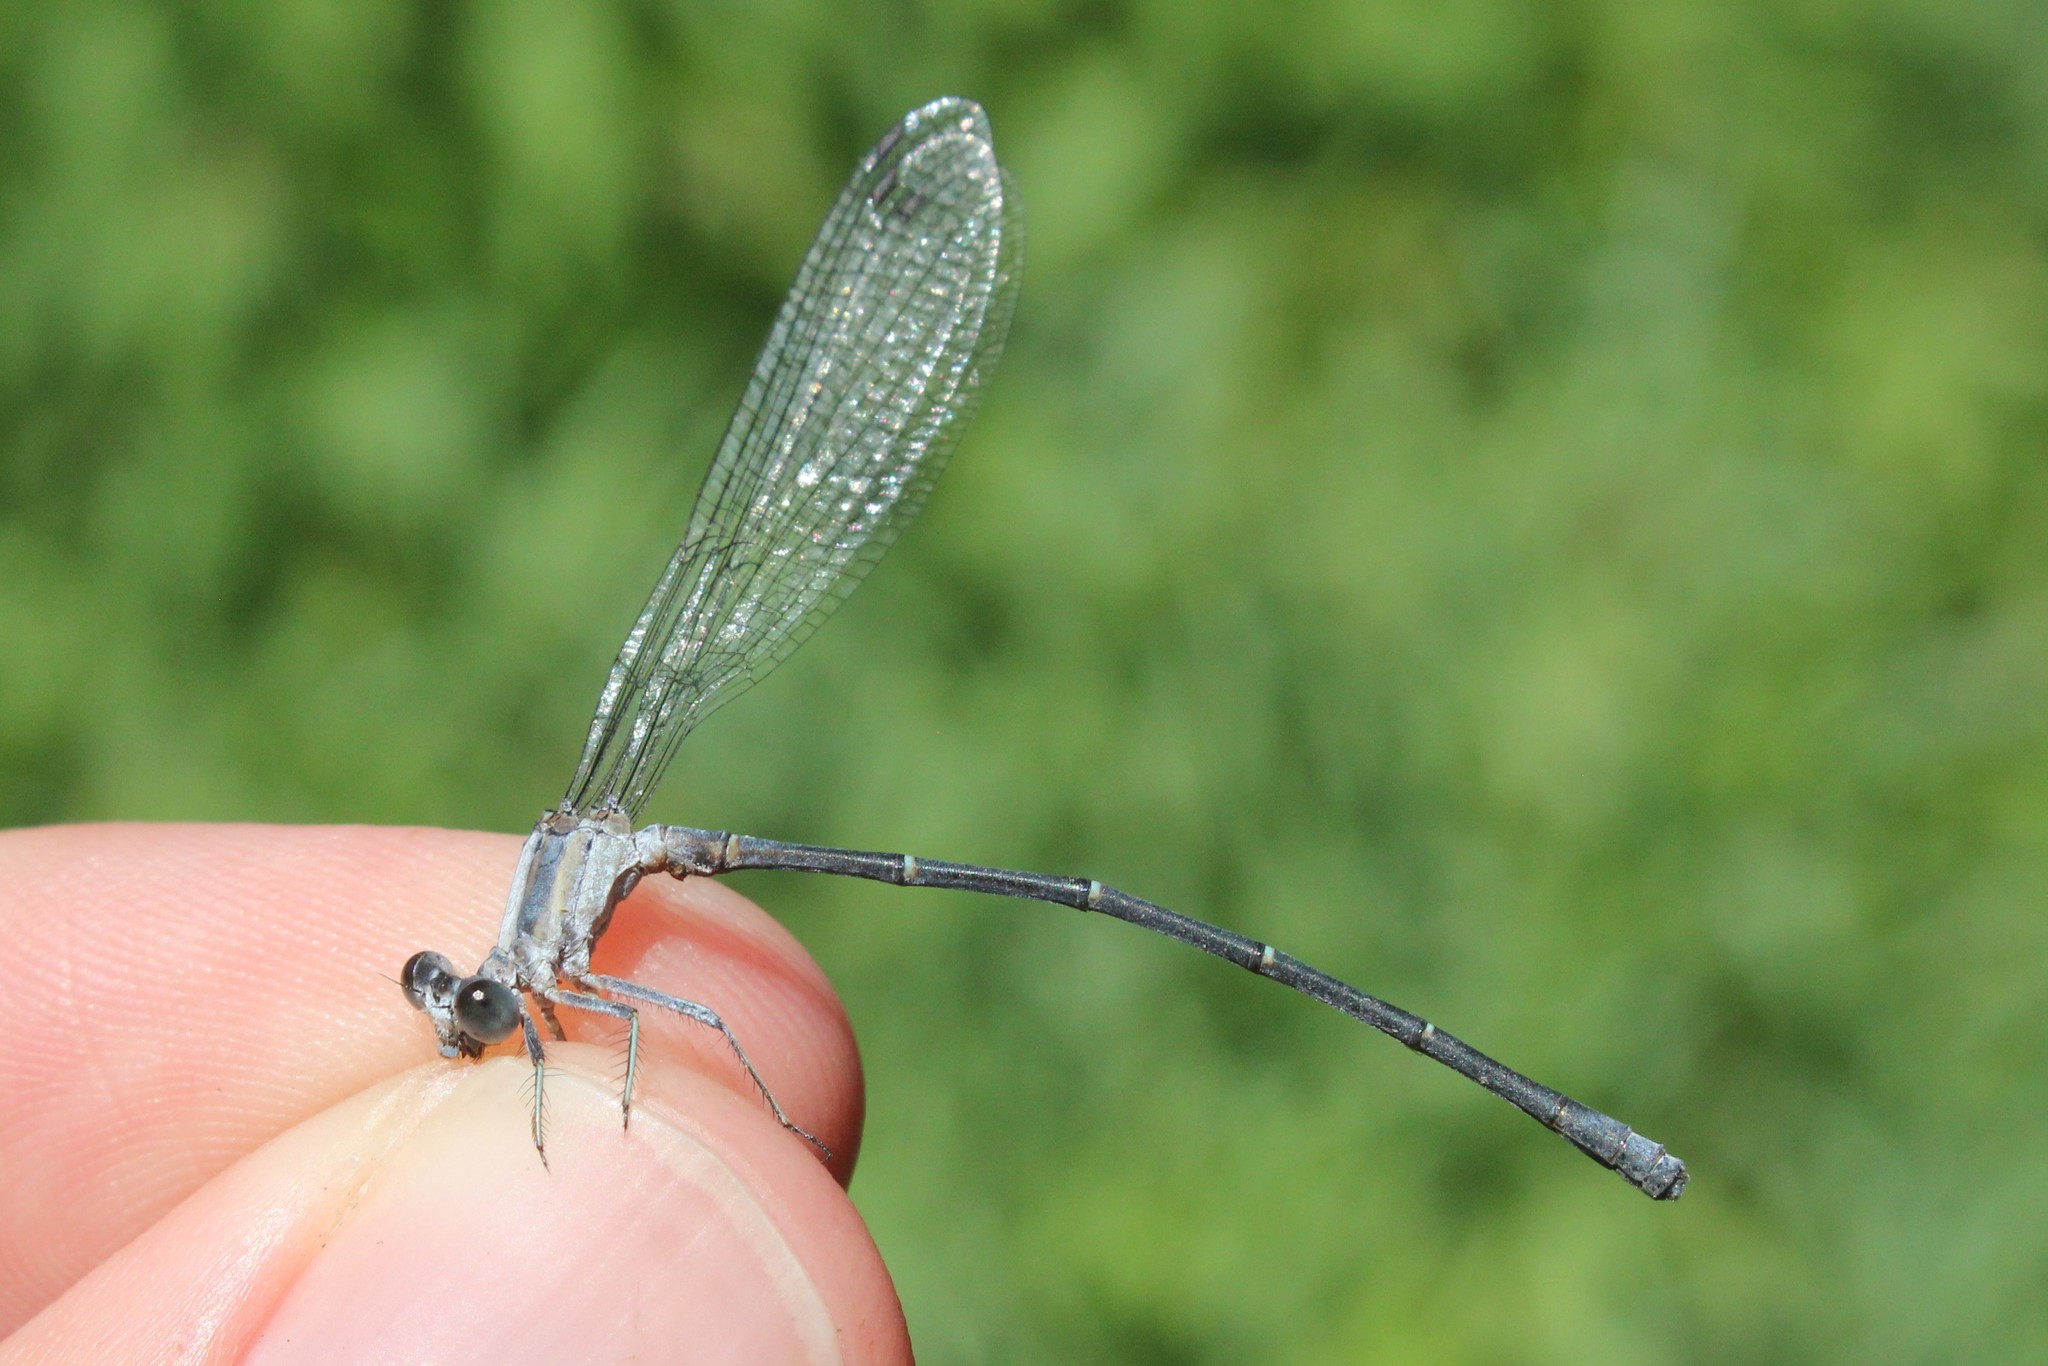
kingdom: Animalia
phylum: Arthropoda
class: Insecta
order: Odonata
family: Coenagrionidae
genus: Argia
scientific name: Argia moesta
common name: Powdered dancer
